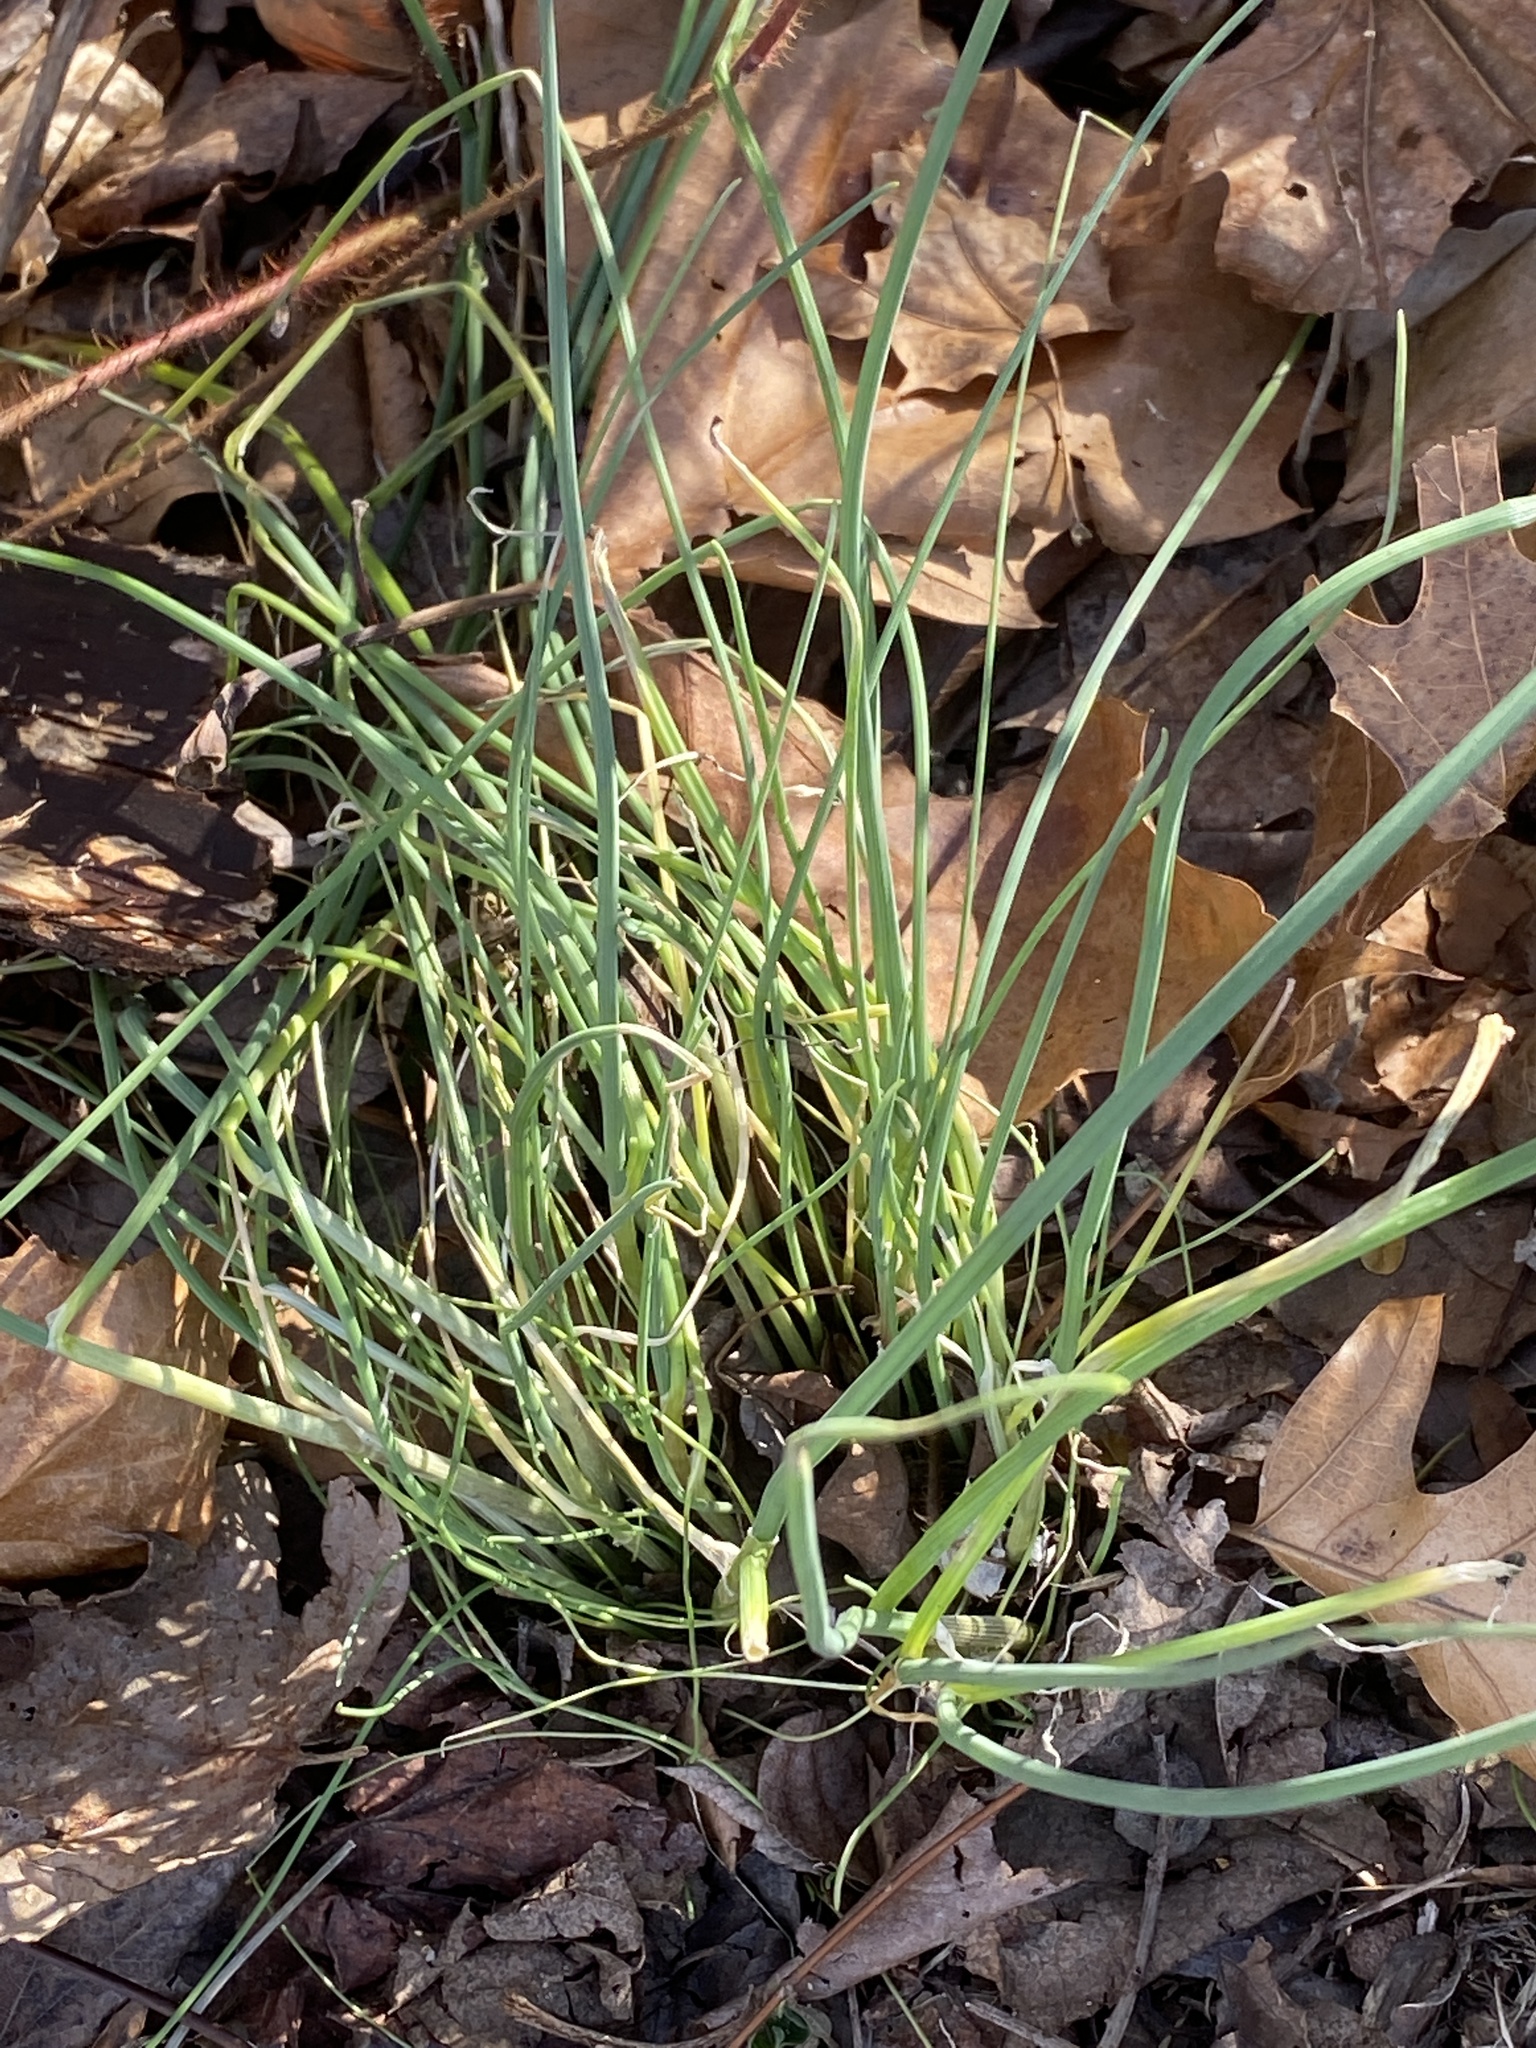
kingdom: Plantae
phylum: Tracheophyta
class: Liliopsida
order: Asparagales
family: Amaryllidaceae
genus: Allium
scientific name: Allium vineale
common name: Crow garlic
